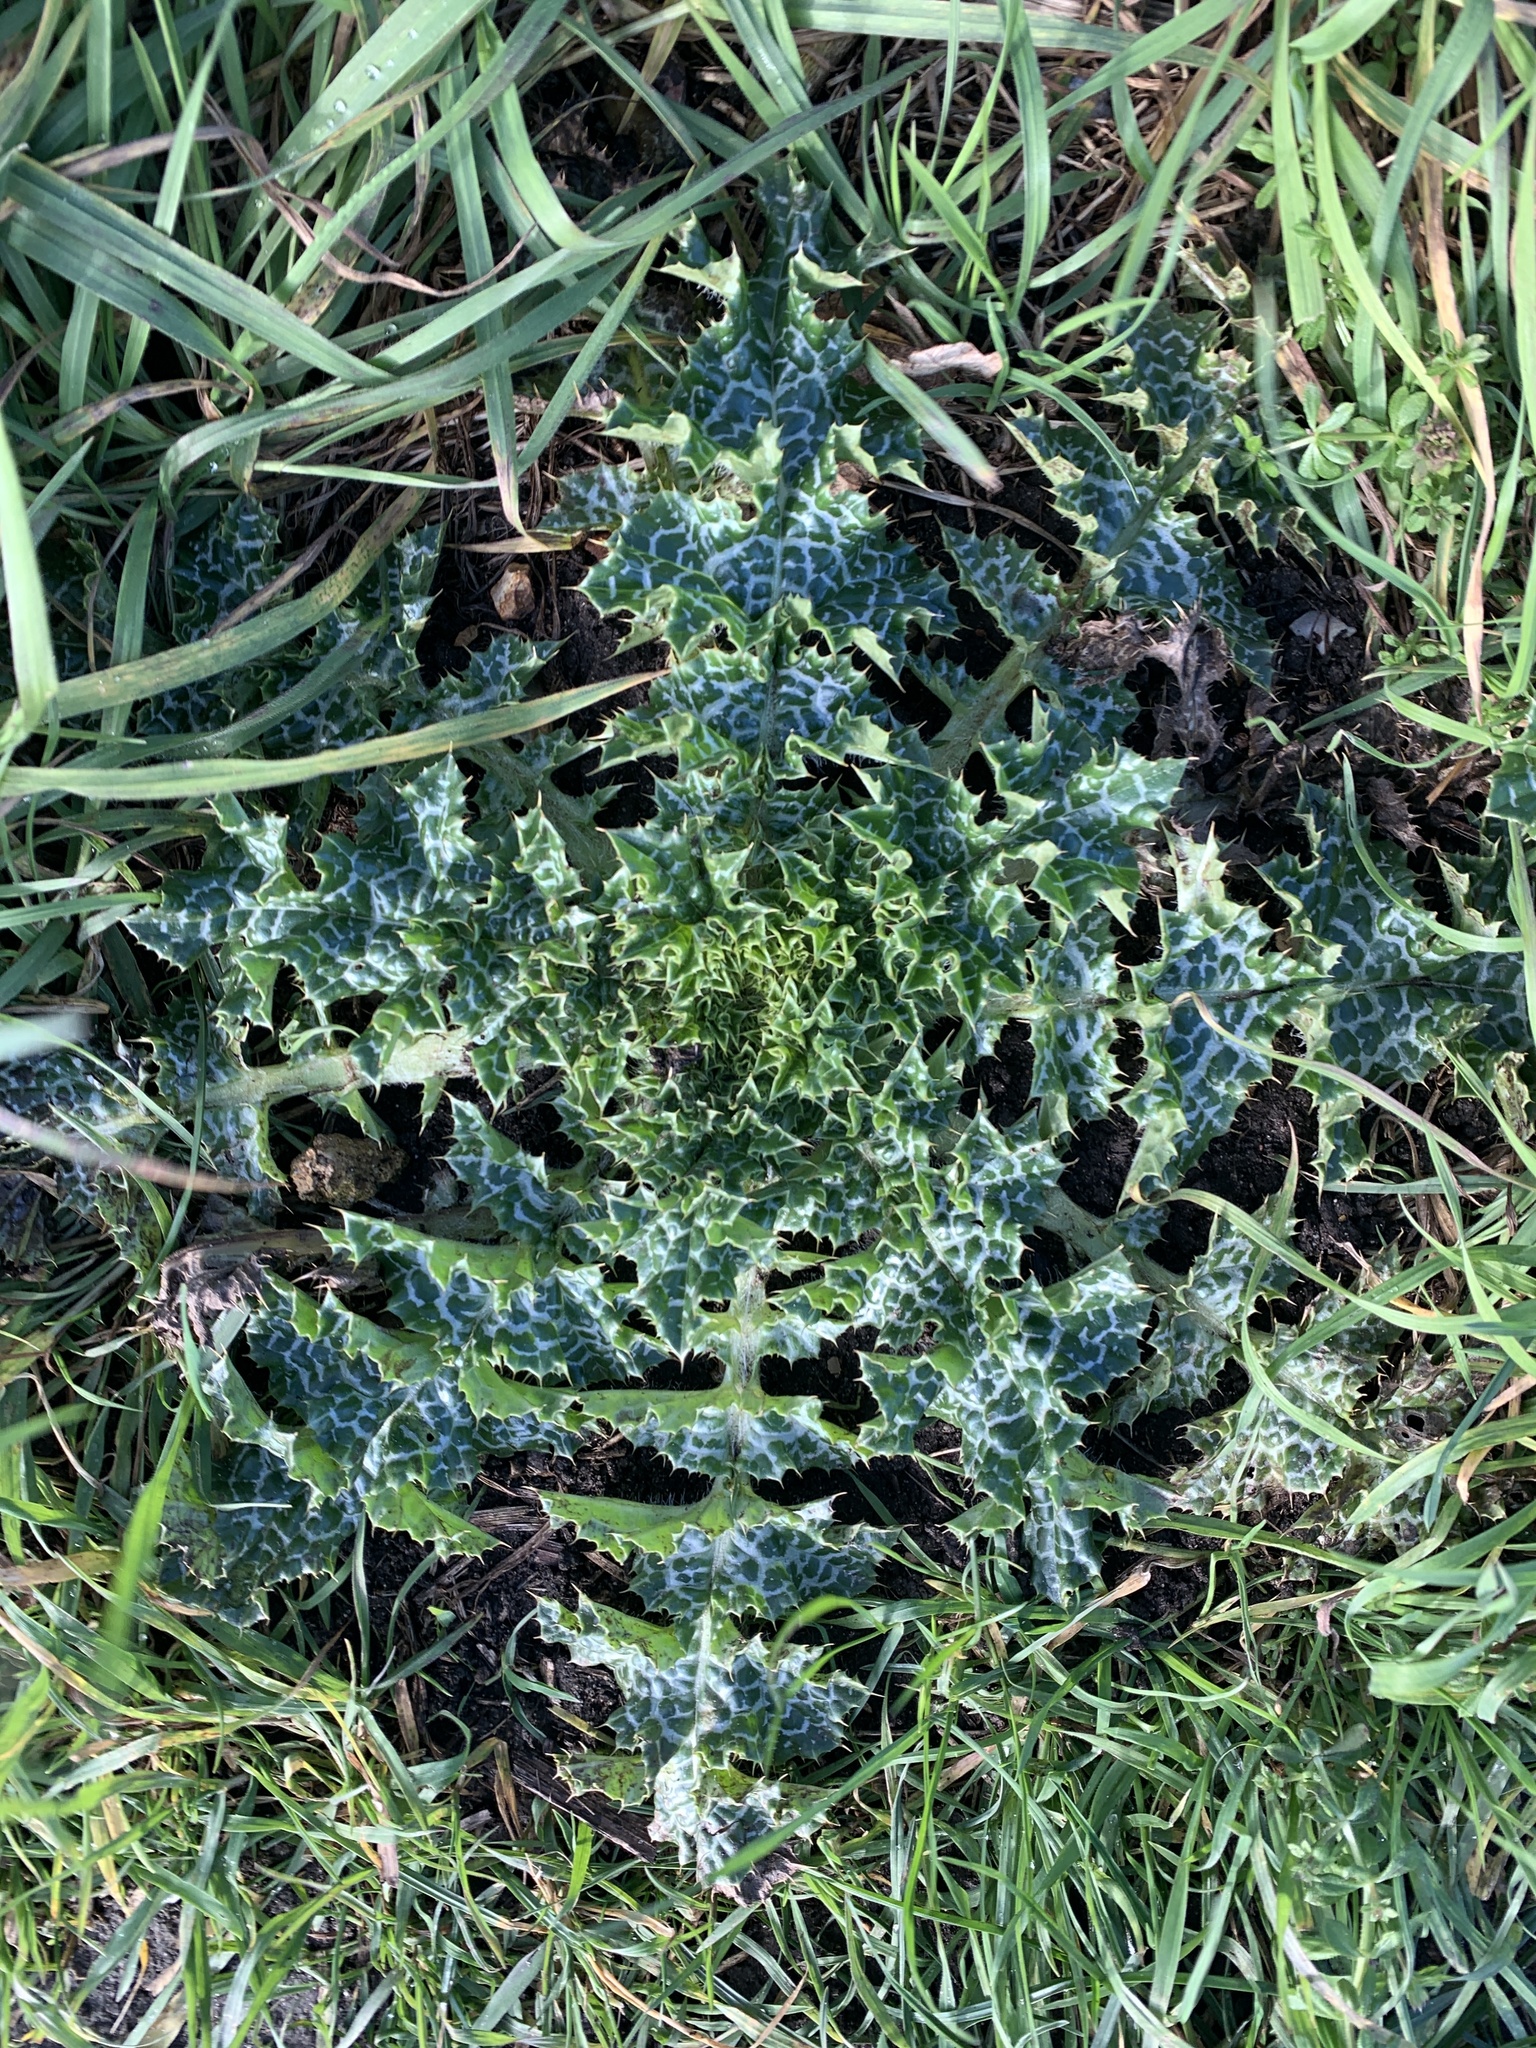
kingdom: Plantae
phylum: Tracheophyta
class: Magnoliopsida
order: Asterales
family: Asteraceae
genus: Silybum
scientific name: Silybum marianum
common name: Milk thistle
